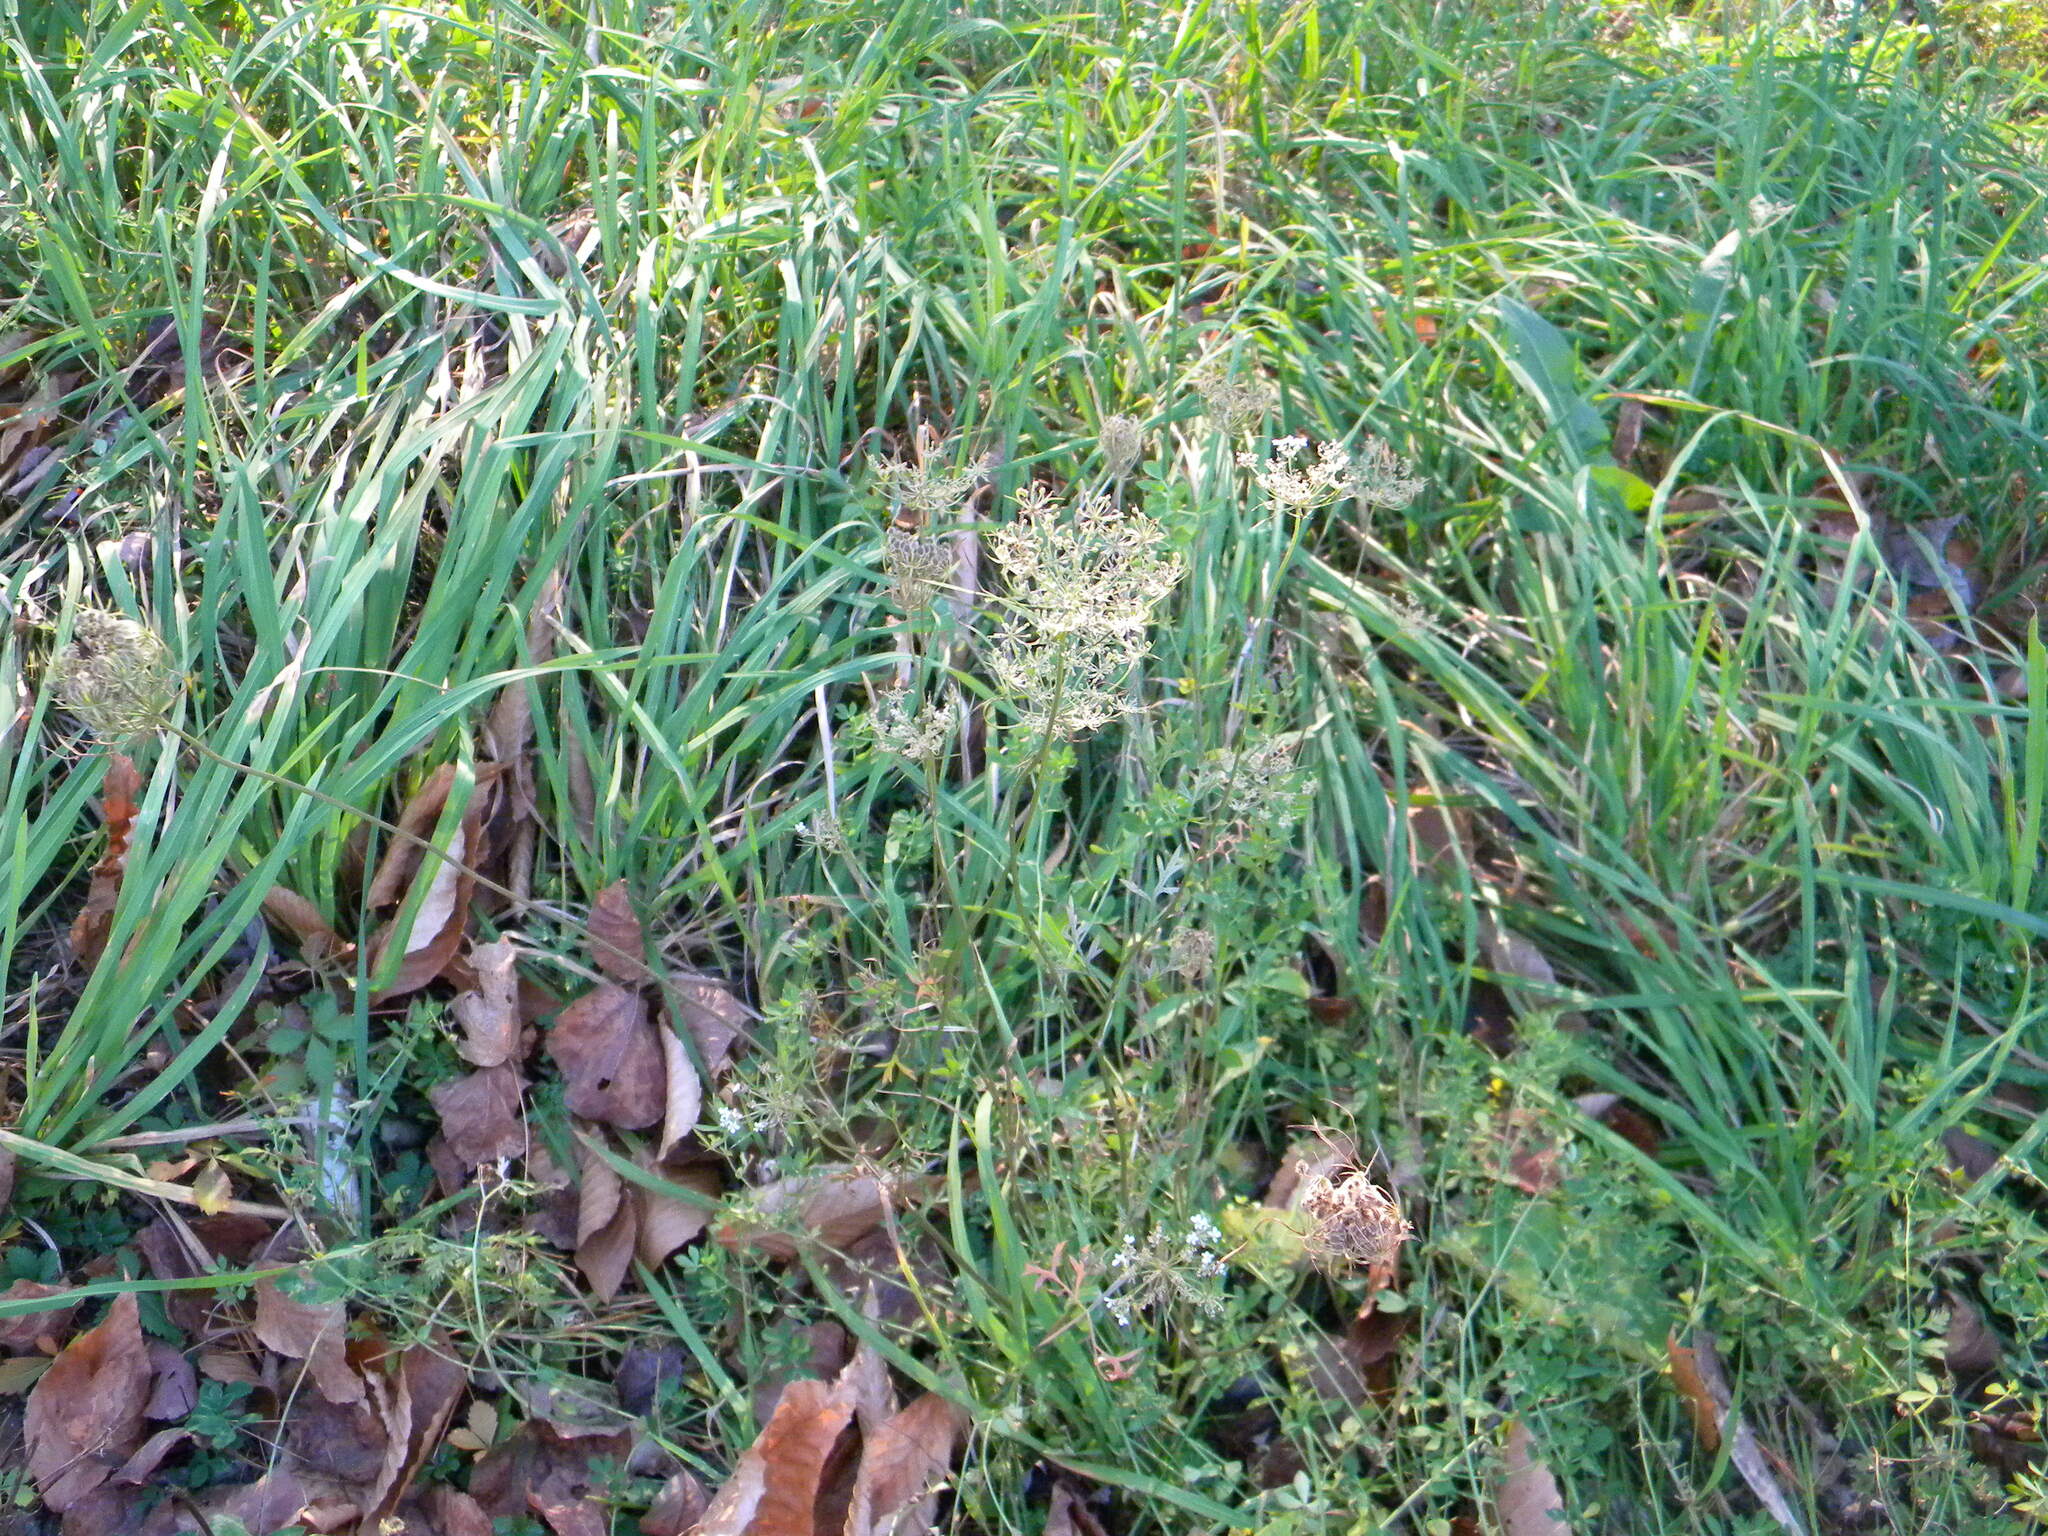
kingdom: Plantae
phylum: Tracheophyta
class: Magnoliopsida
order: Apiales
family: Apiaceae
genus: Daucus
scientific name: Daucus carota
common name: Wild carrot
